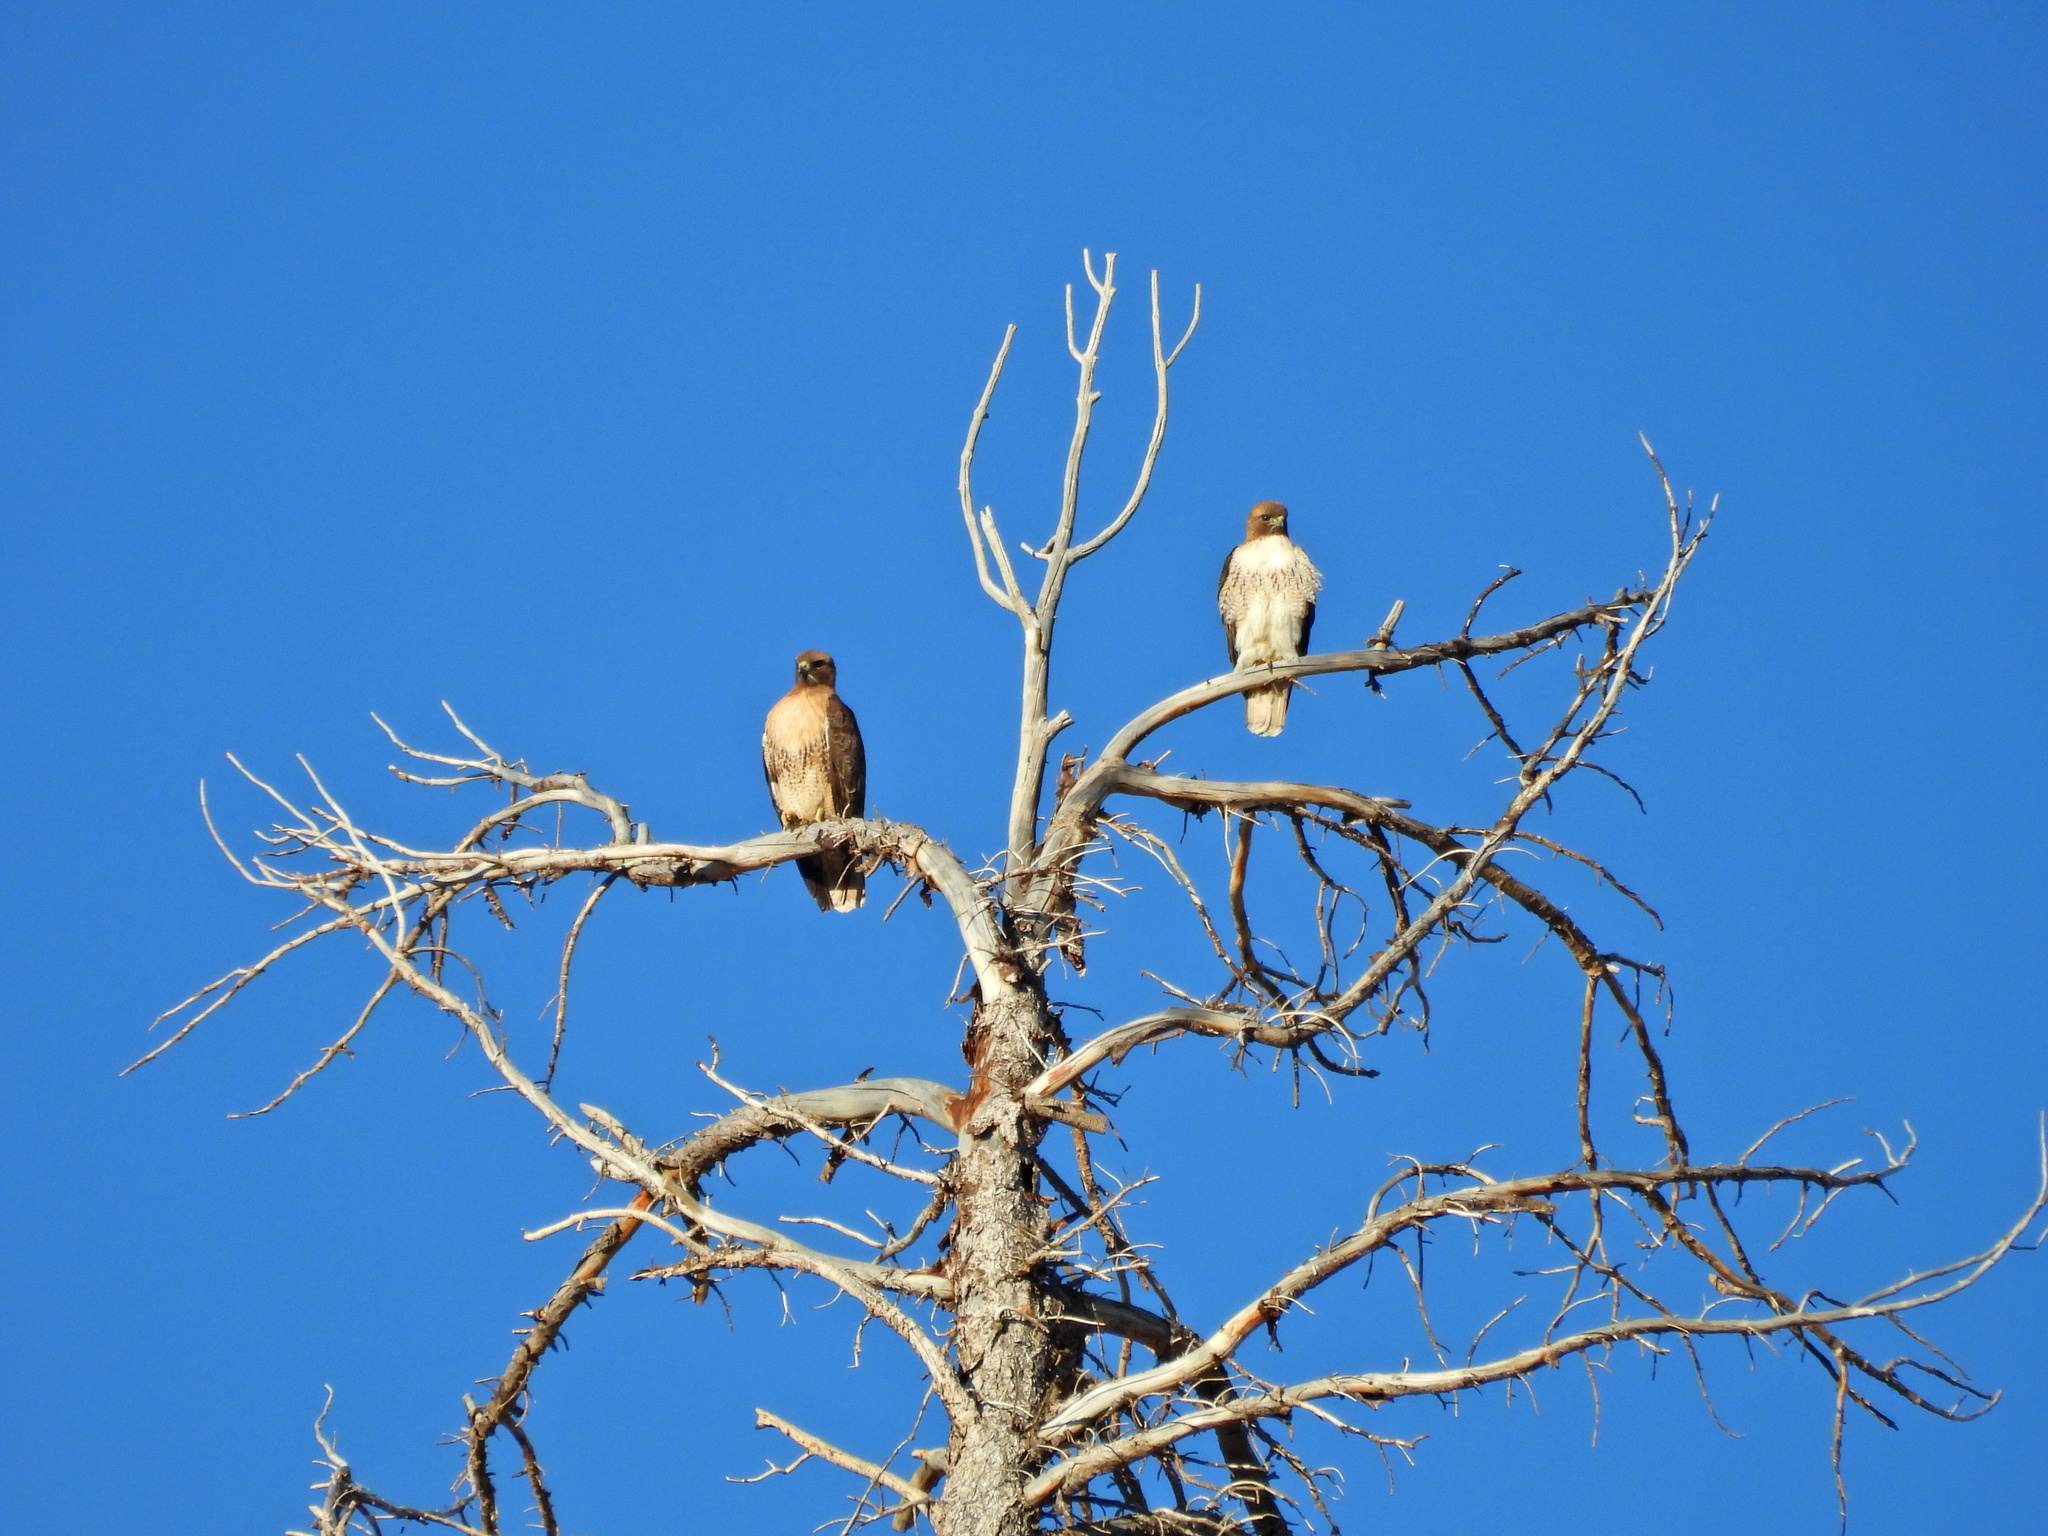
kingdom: Animalia
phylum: Chordata
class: Aves
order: Accipitriformes
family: Accipitridae
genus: Buteo
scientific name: Buteo jamaicensis
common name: Red-tailed hawk
